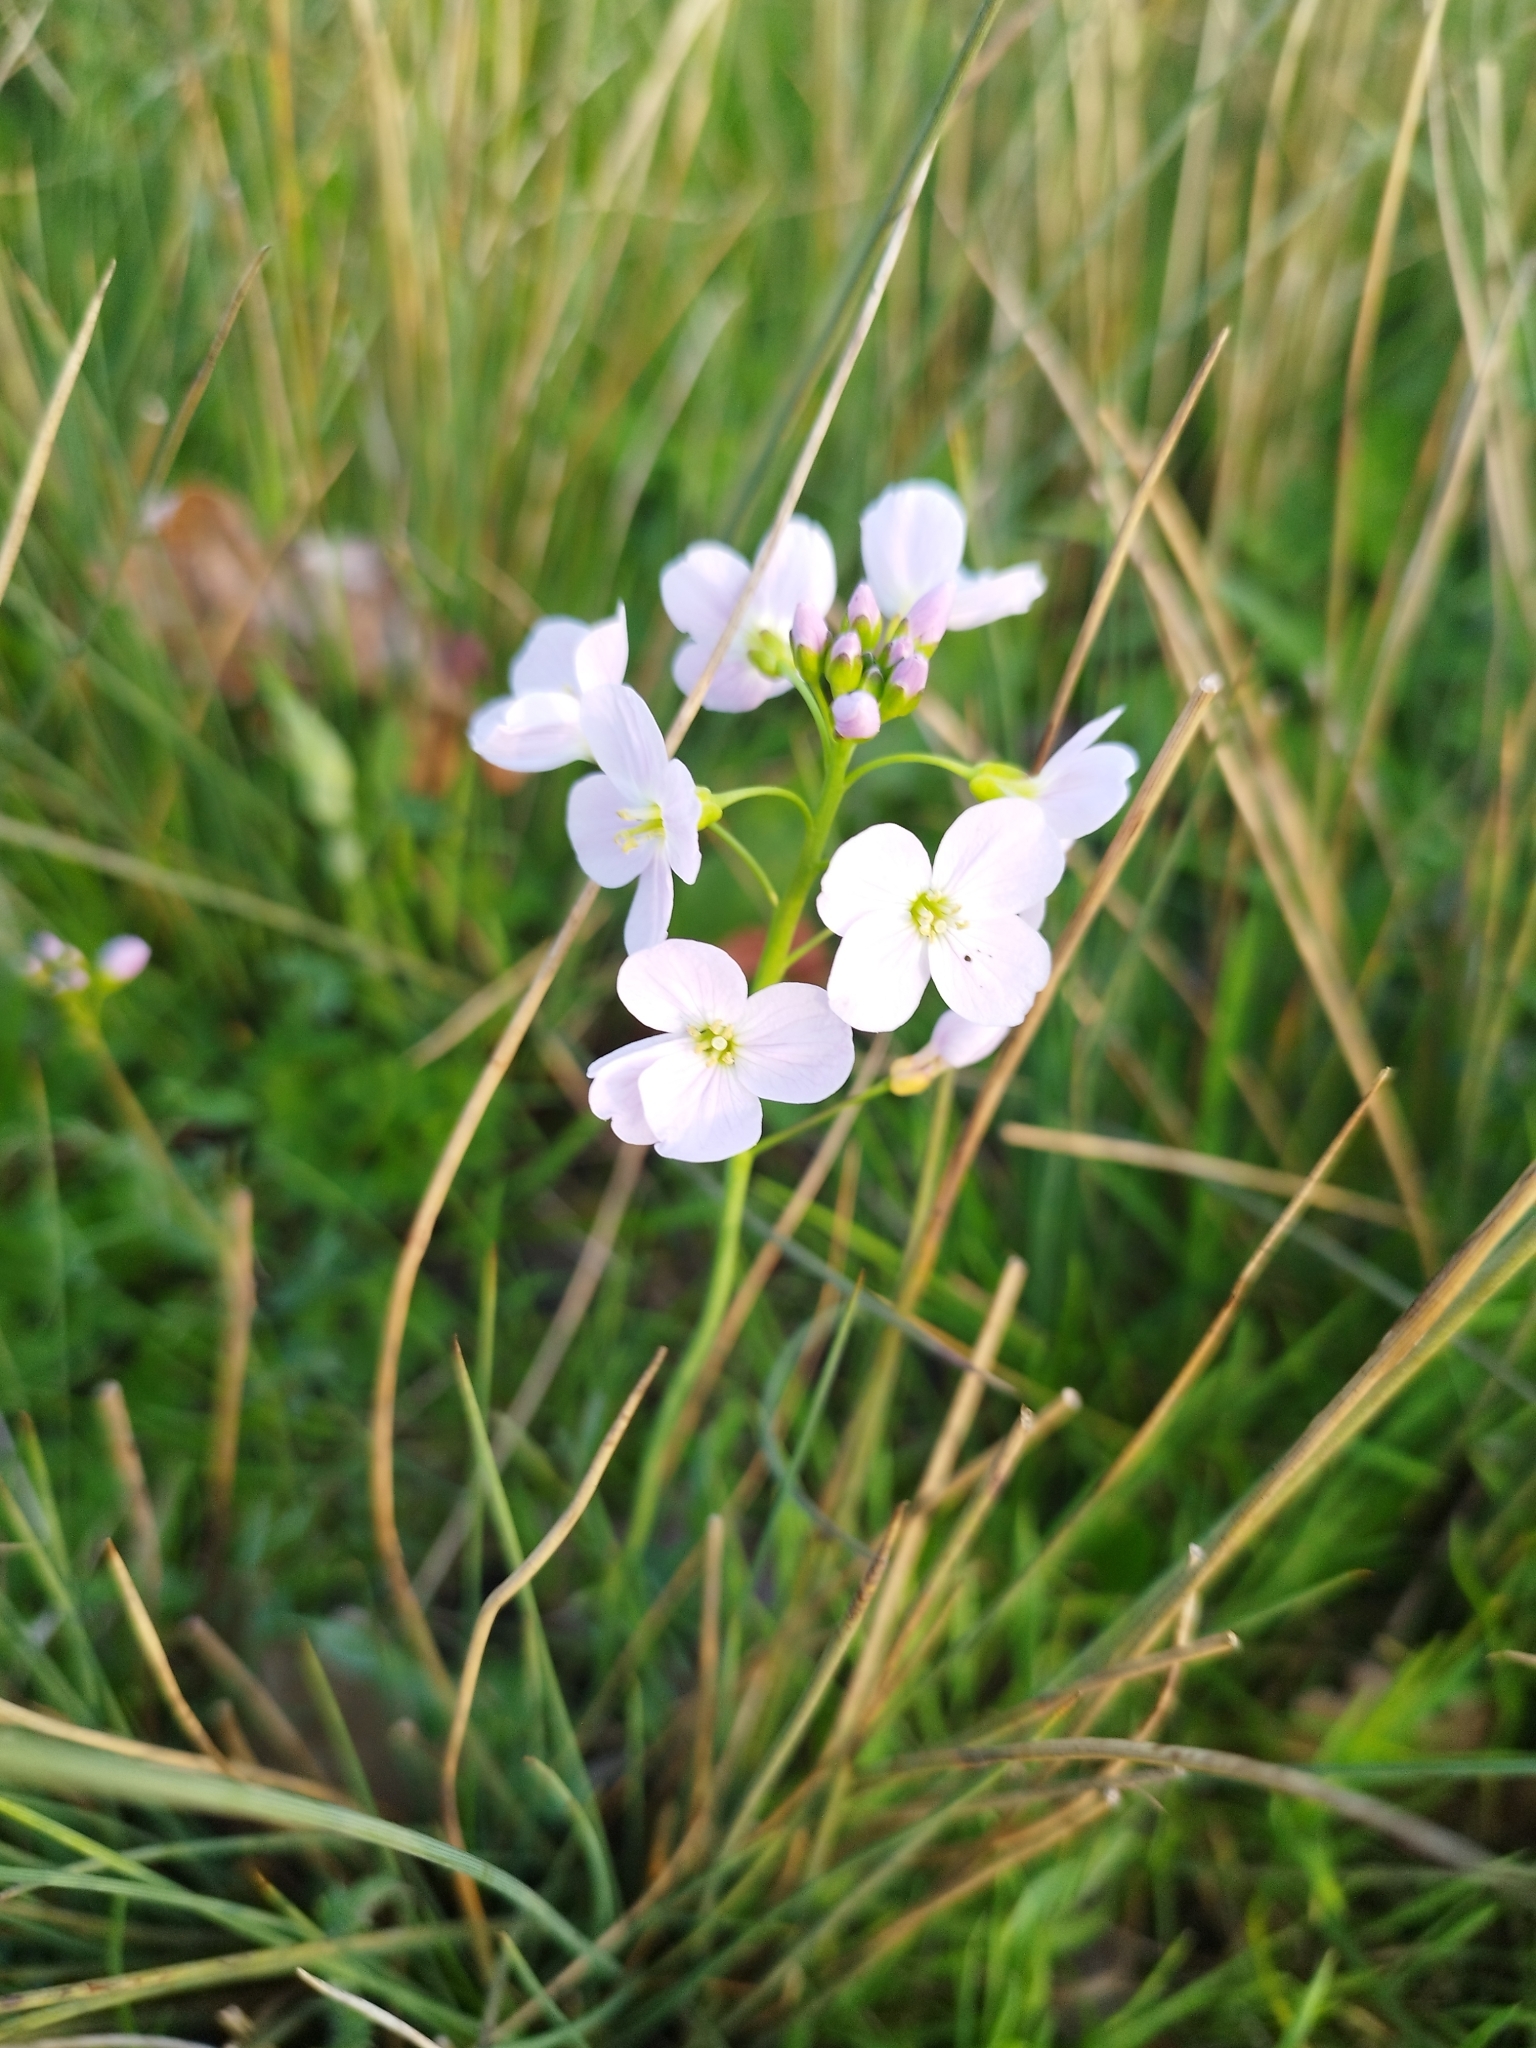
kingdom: Plantae
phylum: Tracheophyta
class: Magnoliopsida
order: Brassicales
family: Brassicaceae
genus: Cardamine
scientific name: Cardamine pratensis
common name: Cuckoo flower
